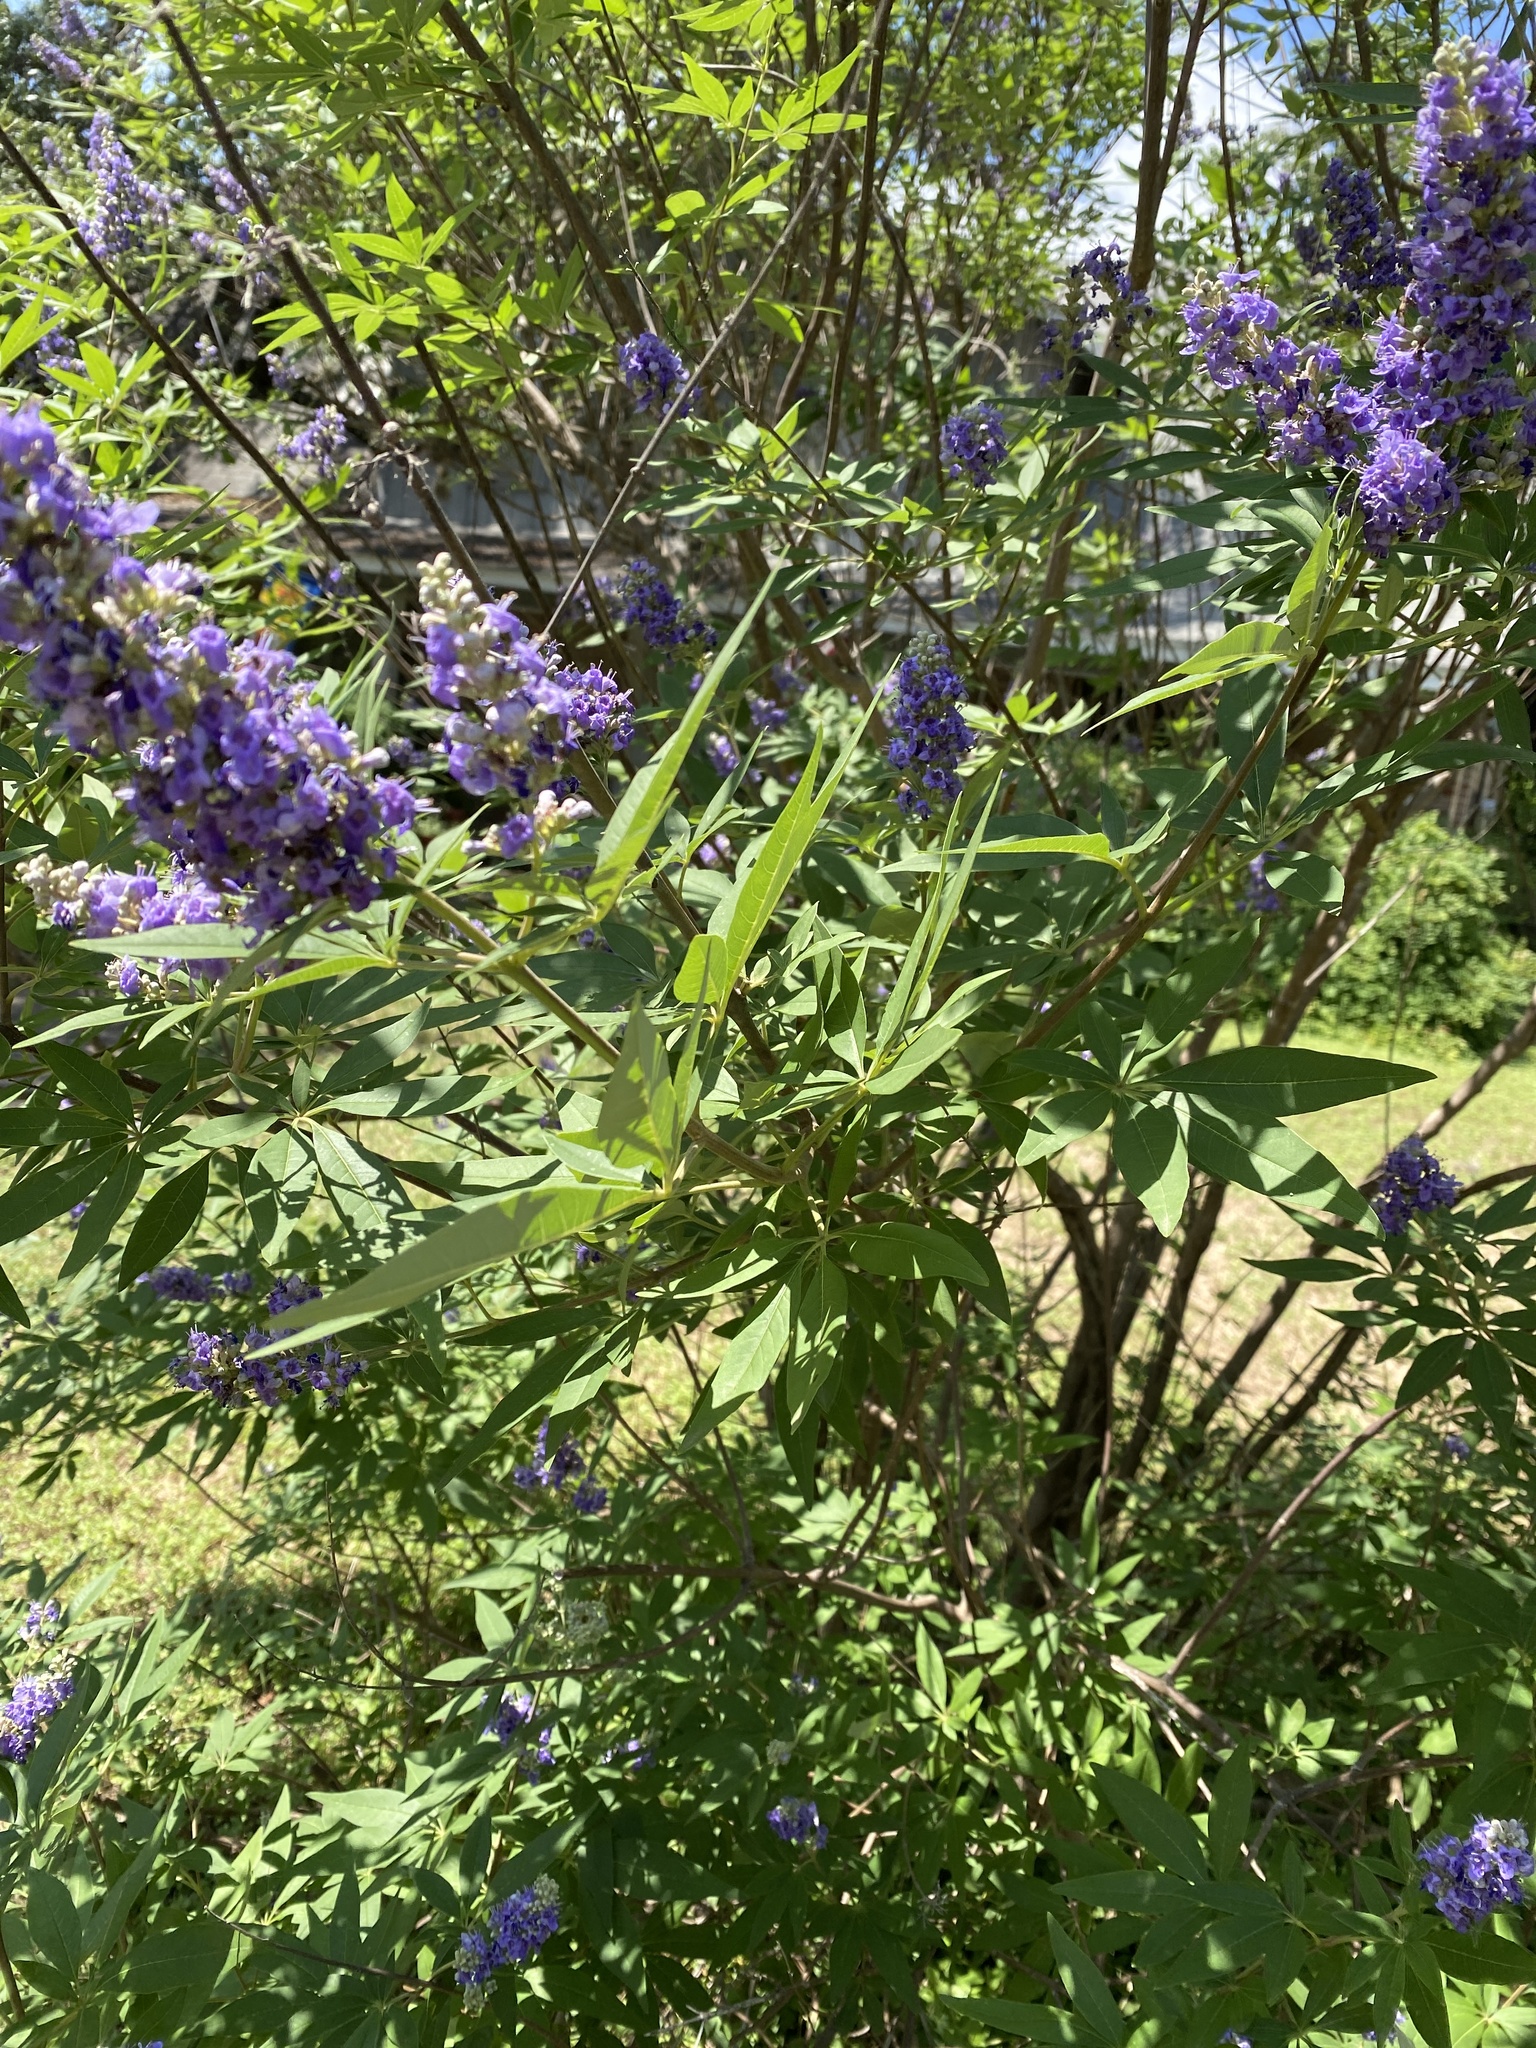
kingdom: Plantae
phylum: Tracheophyta
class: Magnoliopsida
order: Lamiales
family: Lamiaceae
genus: Vitex
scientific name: Vitex agnus-castus
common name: Chasteberry
